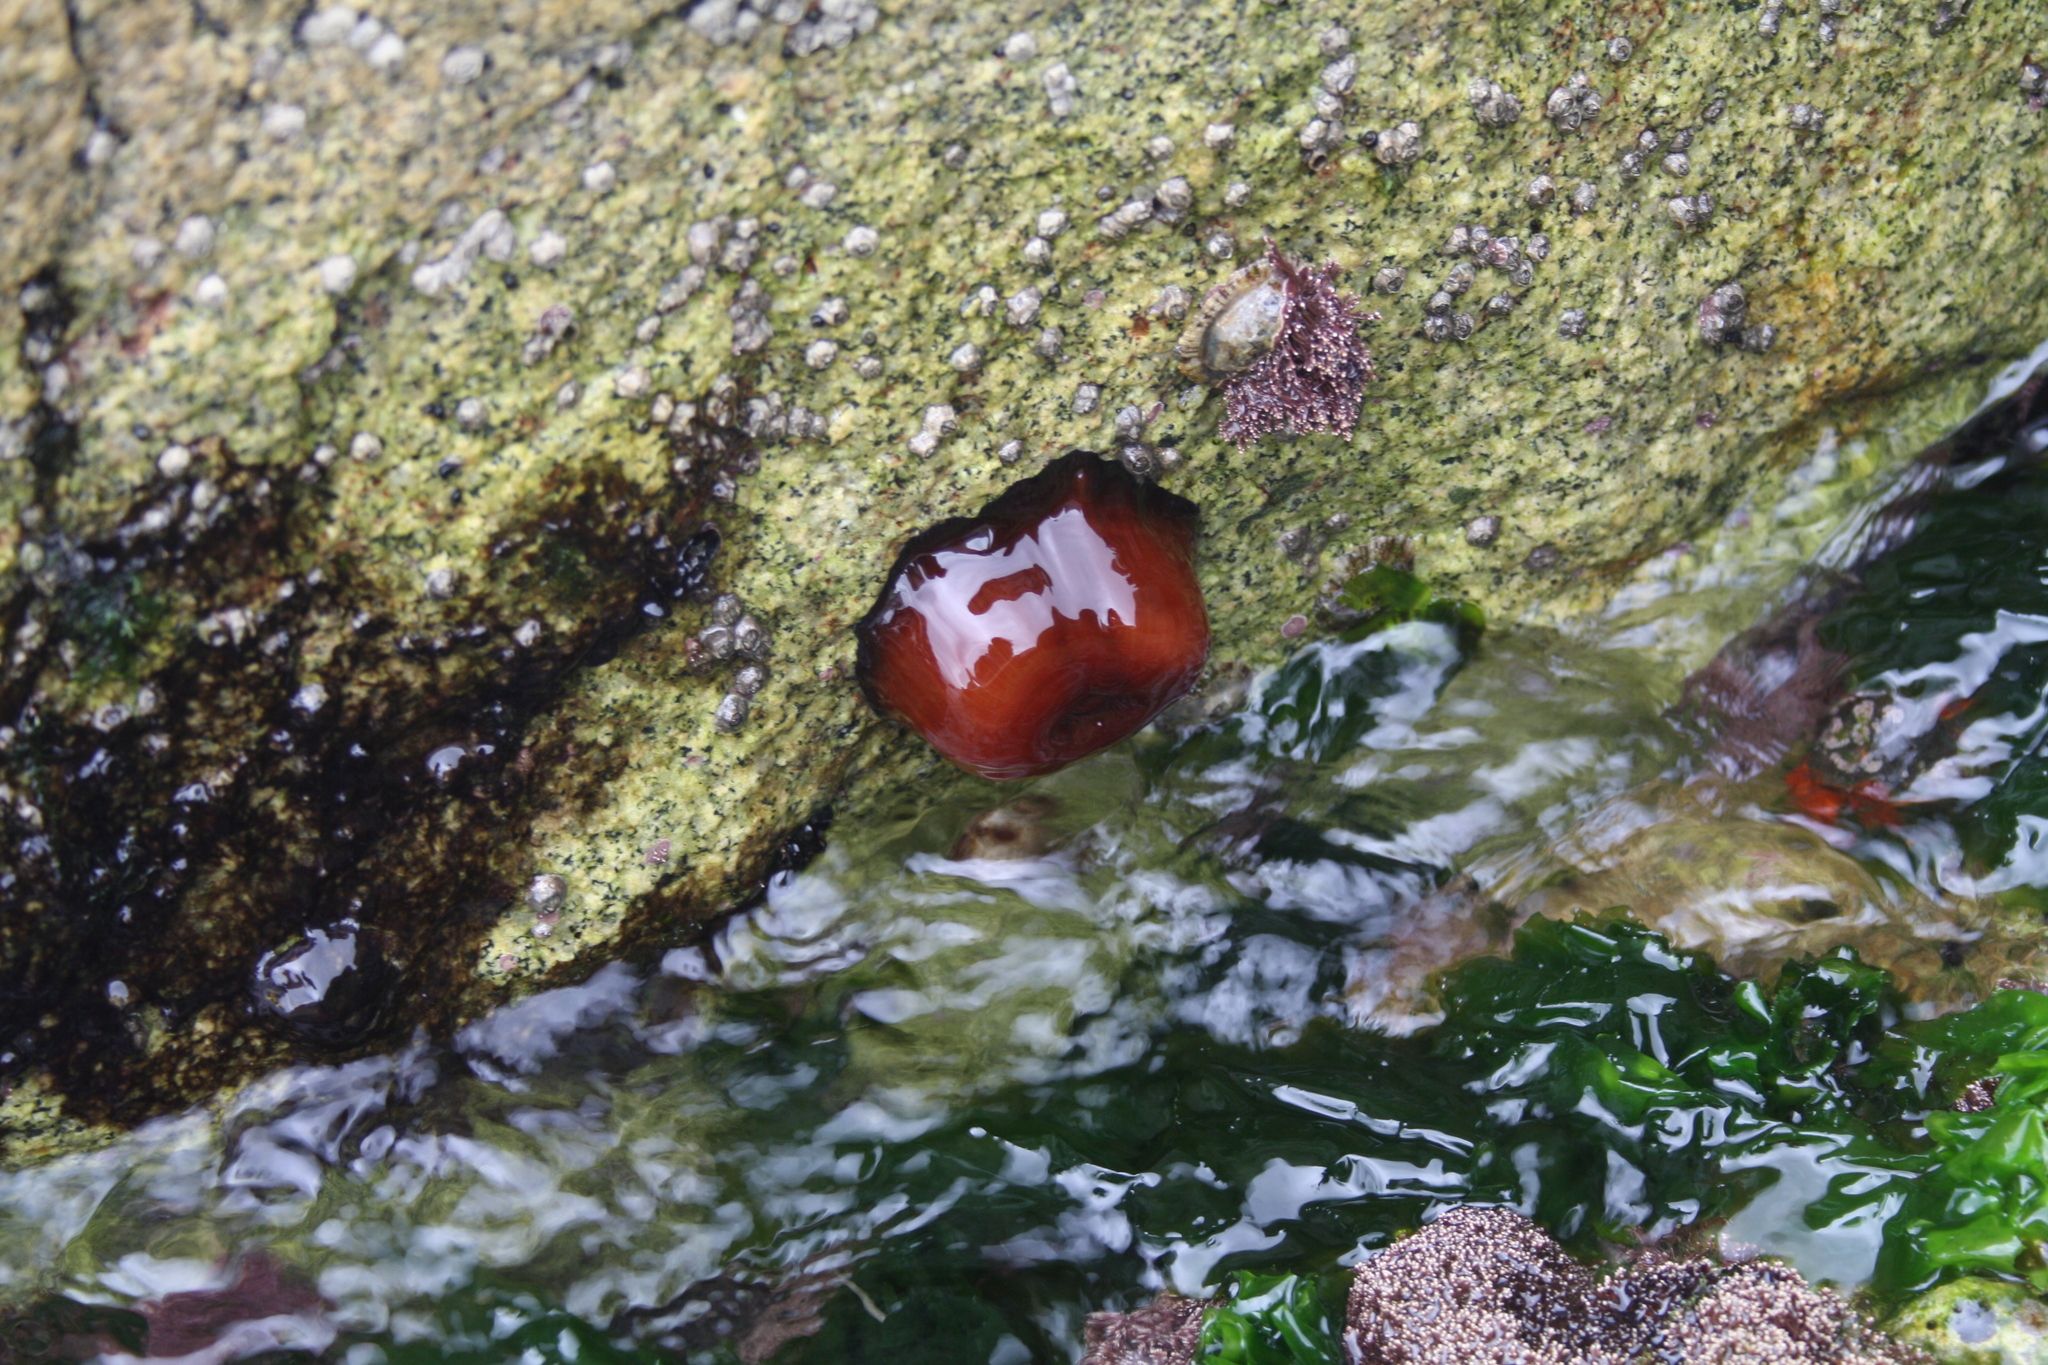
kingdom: Animalia
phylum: Cnidaria
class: Anthozoa
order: Actiniaria
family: Actiniidae
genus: Actinia
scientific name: Actinia mediterranea
